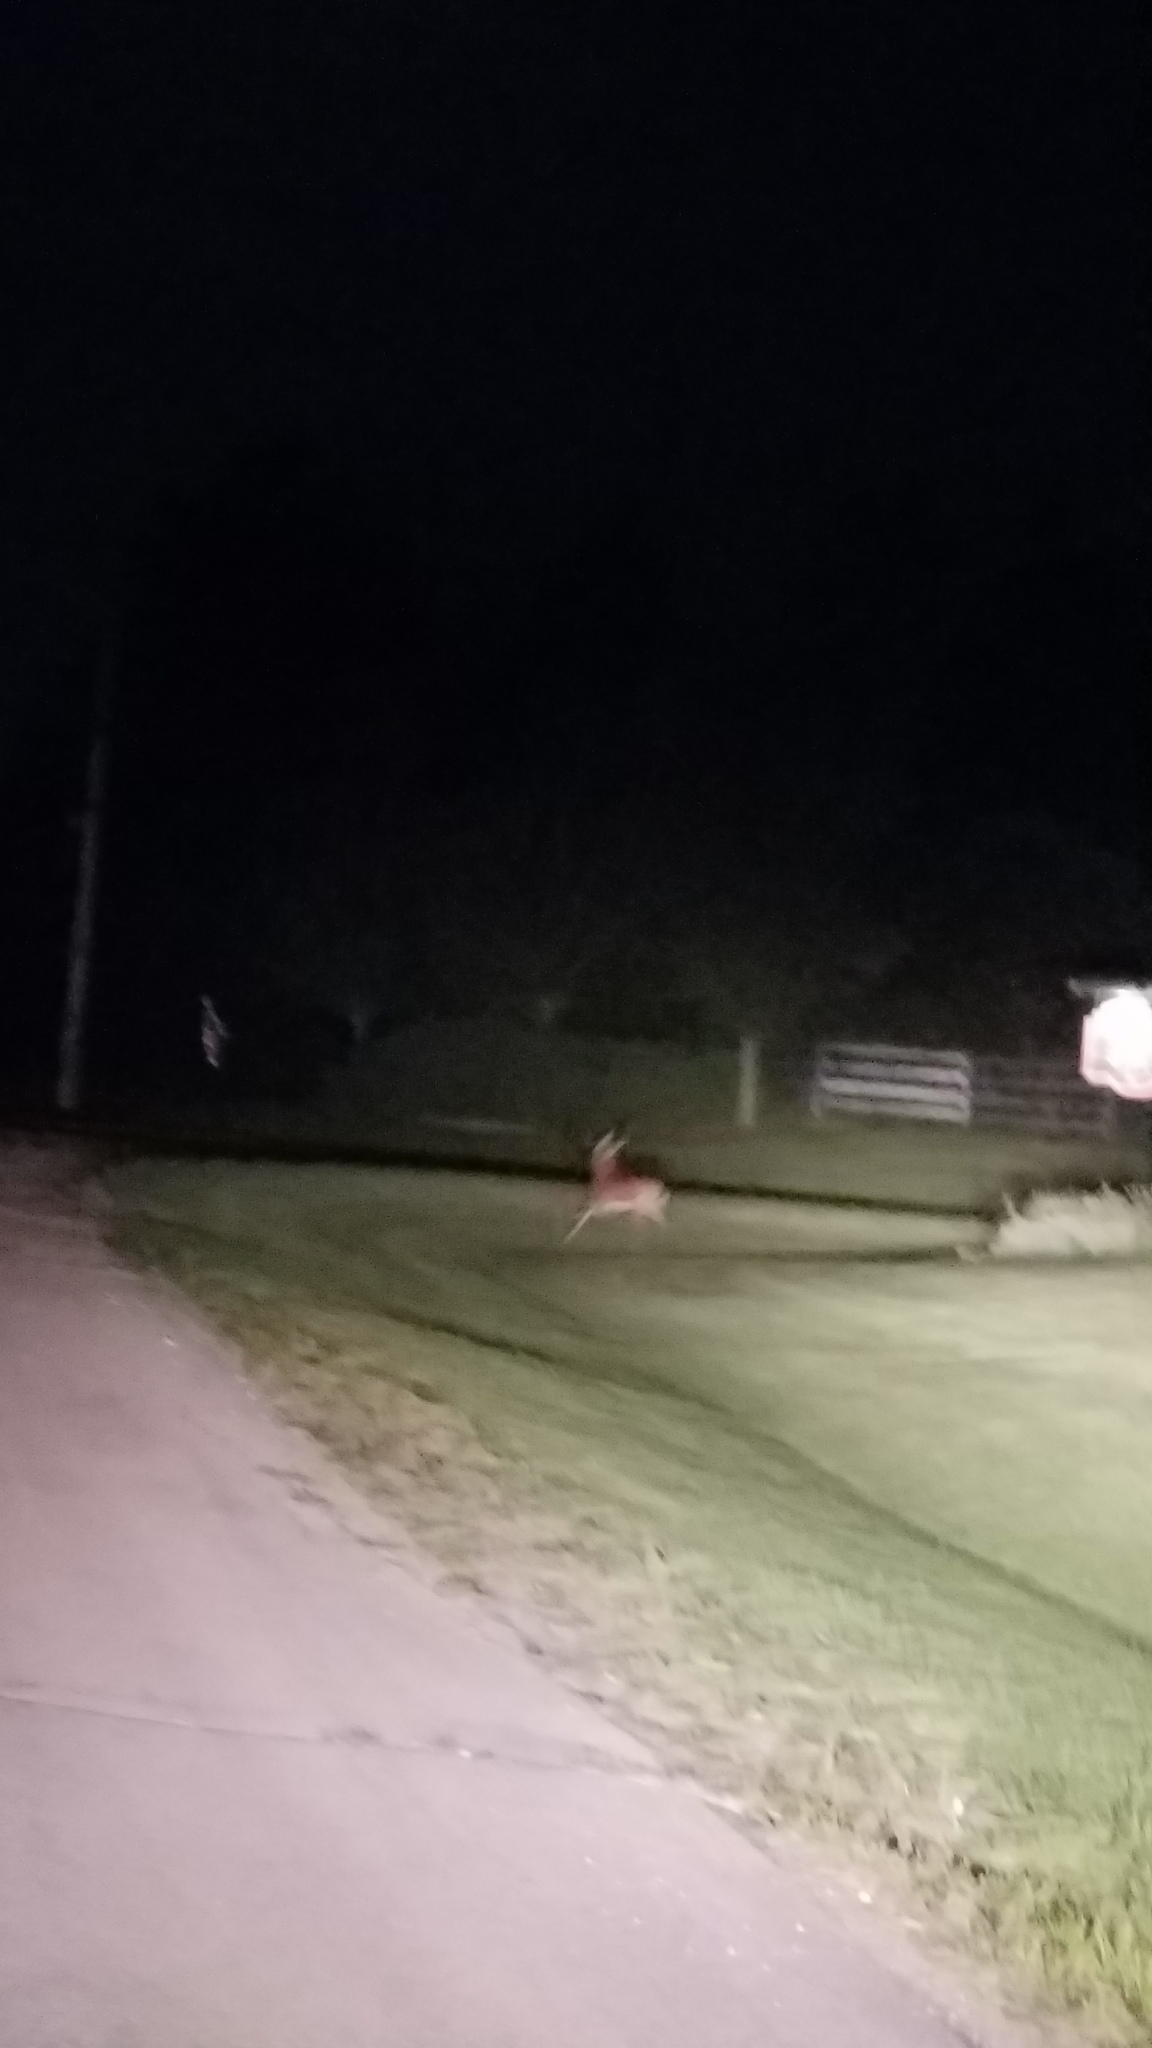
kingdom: Animalia
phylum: Chordata
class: Mammalia
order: Artiodactyla
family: Cervidae
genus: Odocoileus
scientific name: Odocoileus virginianus
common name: White-tailed deer
